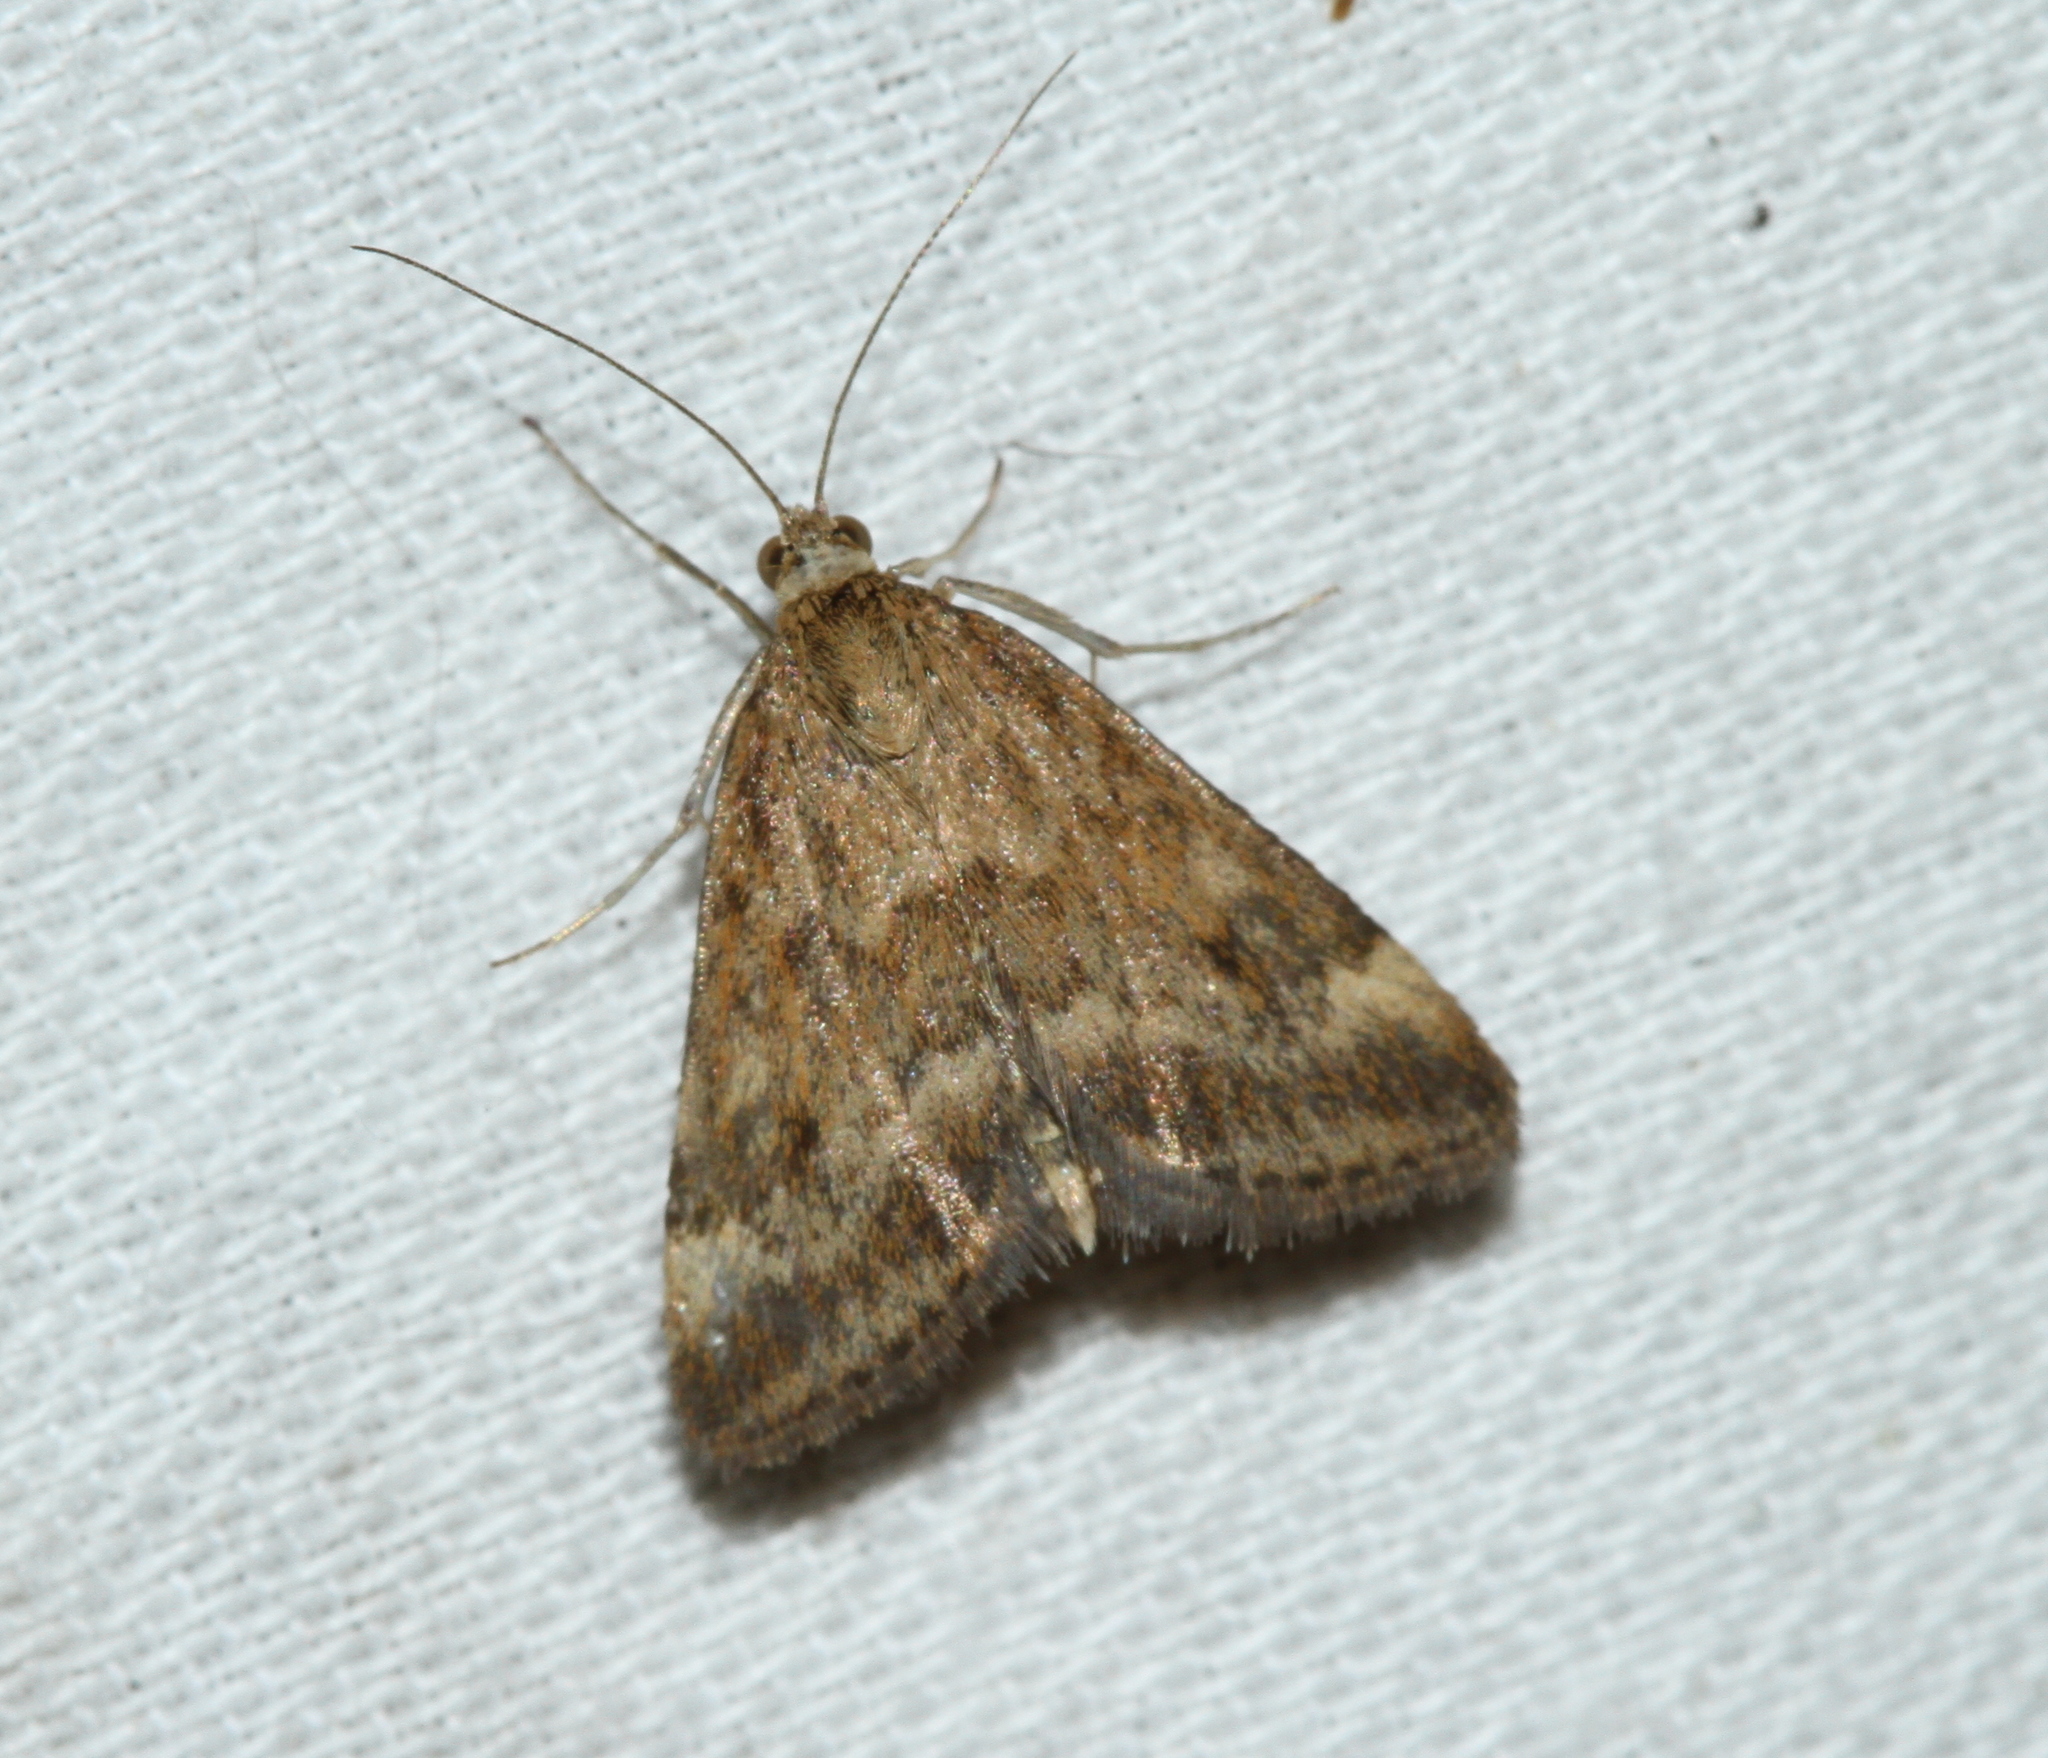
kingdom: Animalia
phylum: Arthropoda
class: Insecta
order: Lepidoptera
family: Crambidae
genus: Pyrausta
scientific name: Pyrausta despicata
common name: Straw-barred pearl
